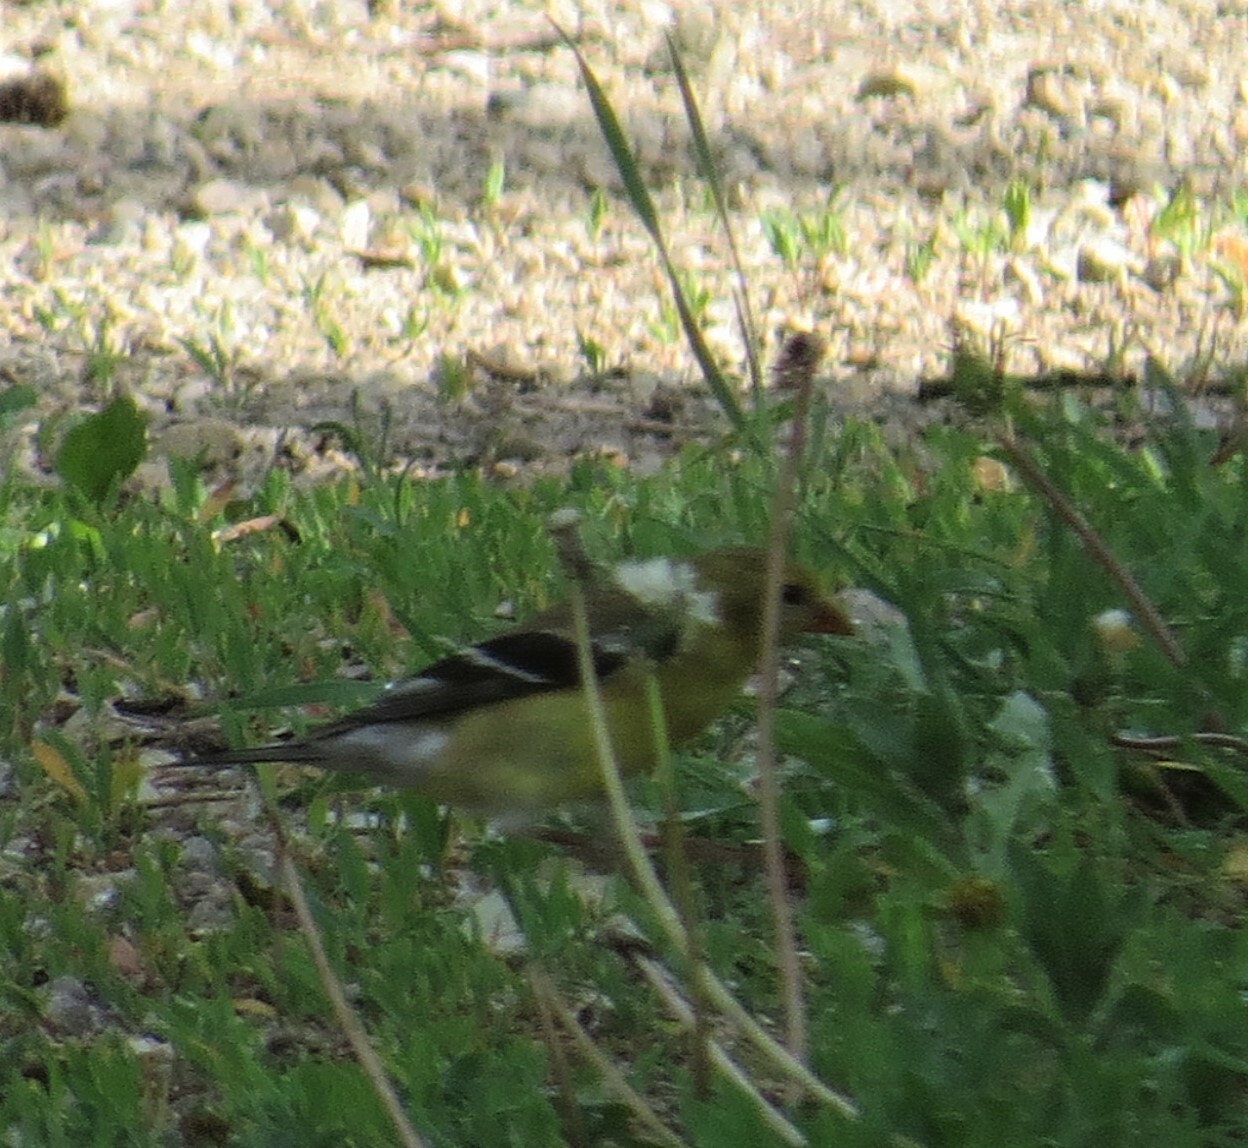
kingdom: Animalia
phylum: Chordata
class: Aves
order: Passeriformes
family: Fringillidae
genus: Spinus
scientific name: Spinus tristis
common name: American goldfinch
